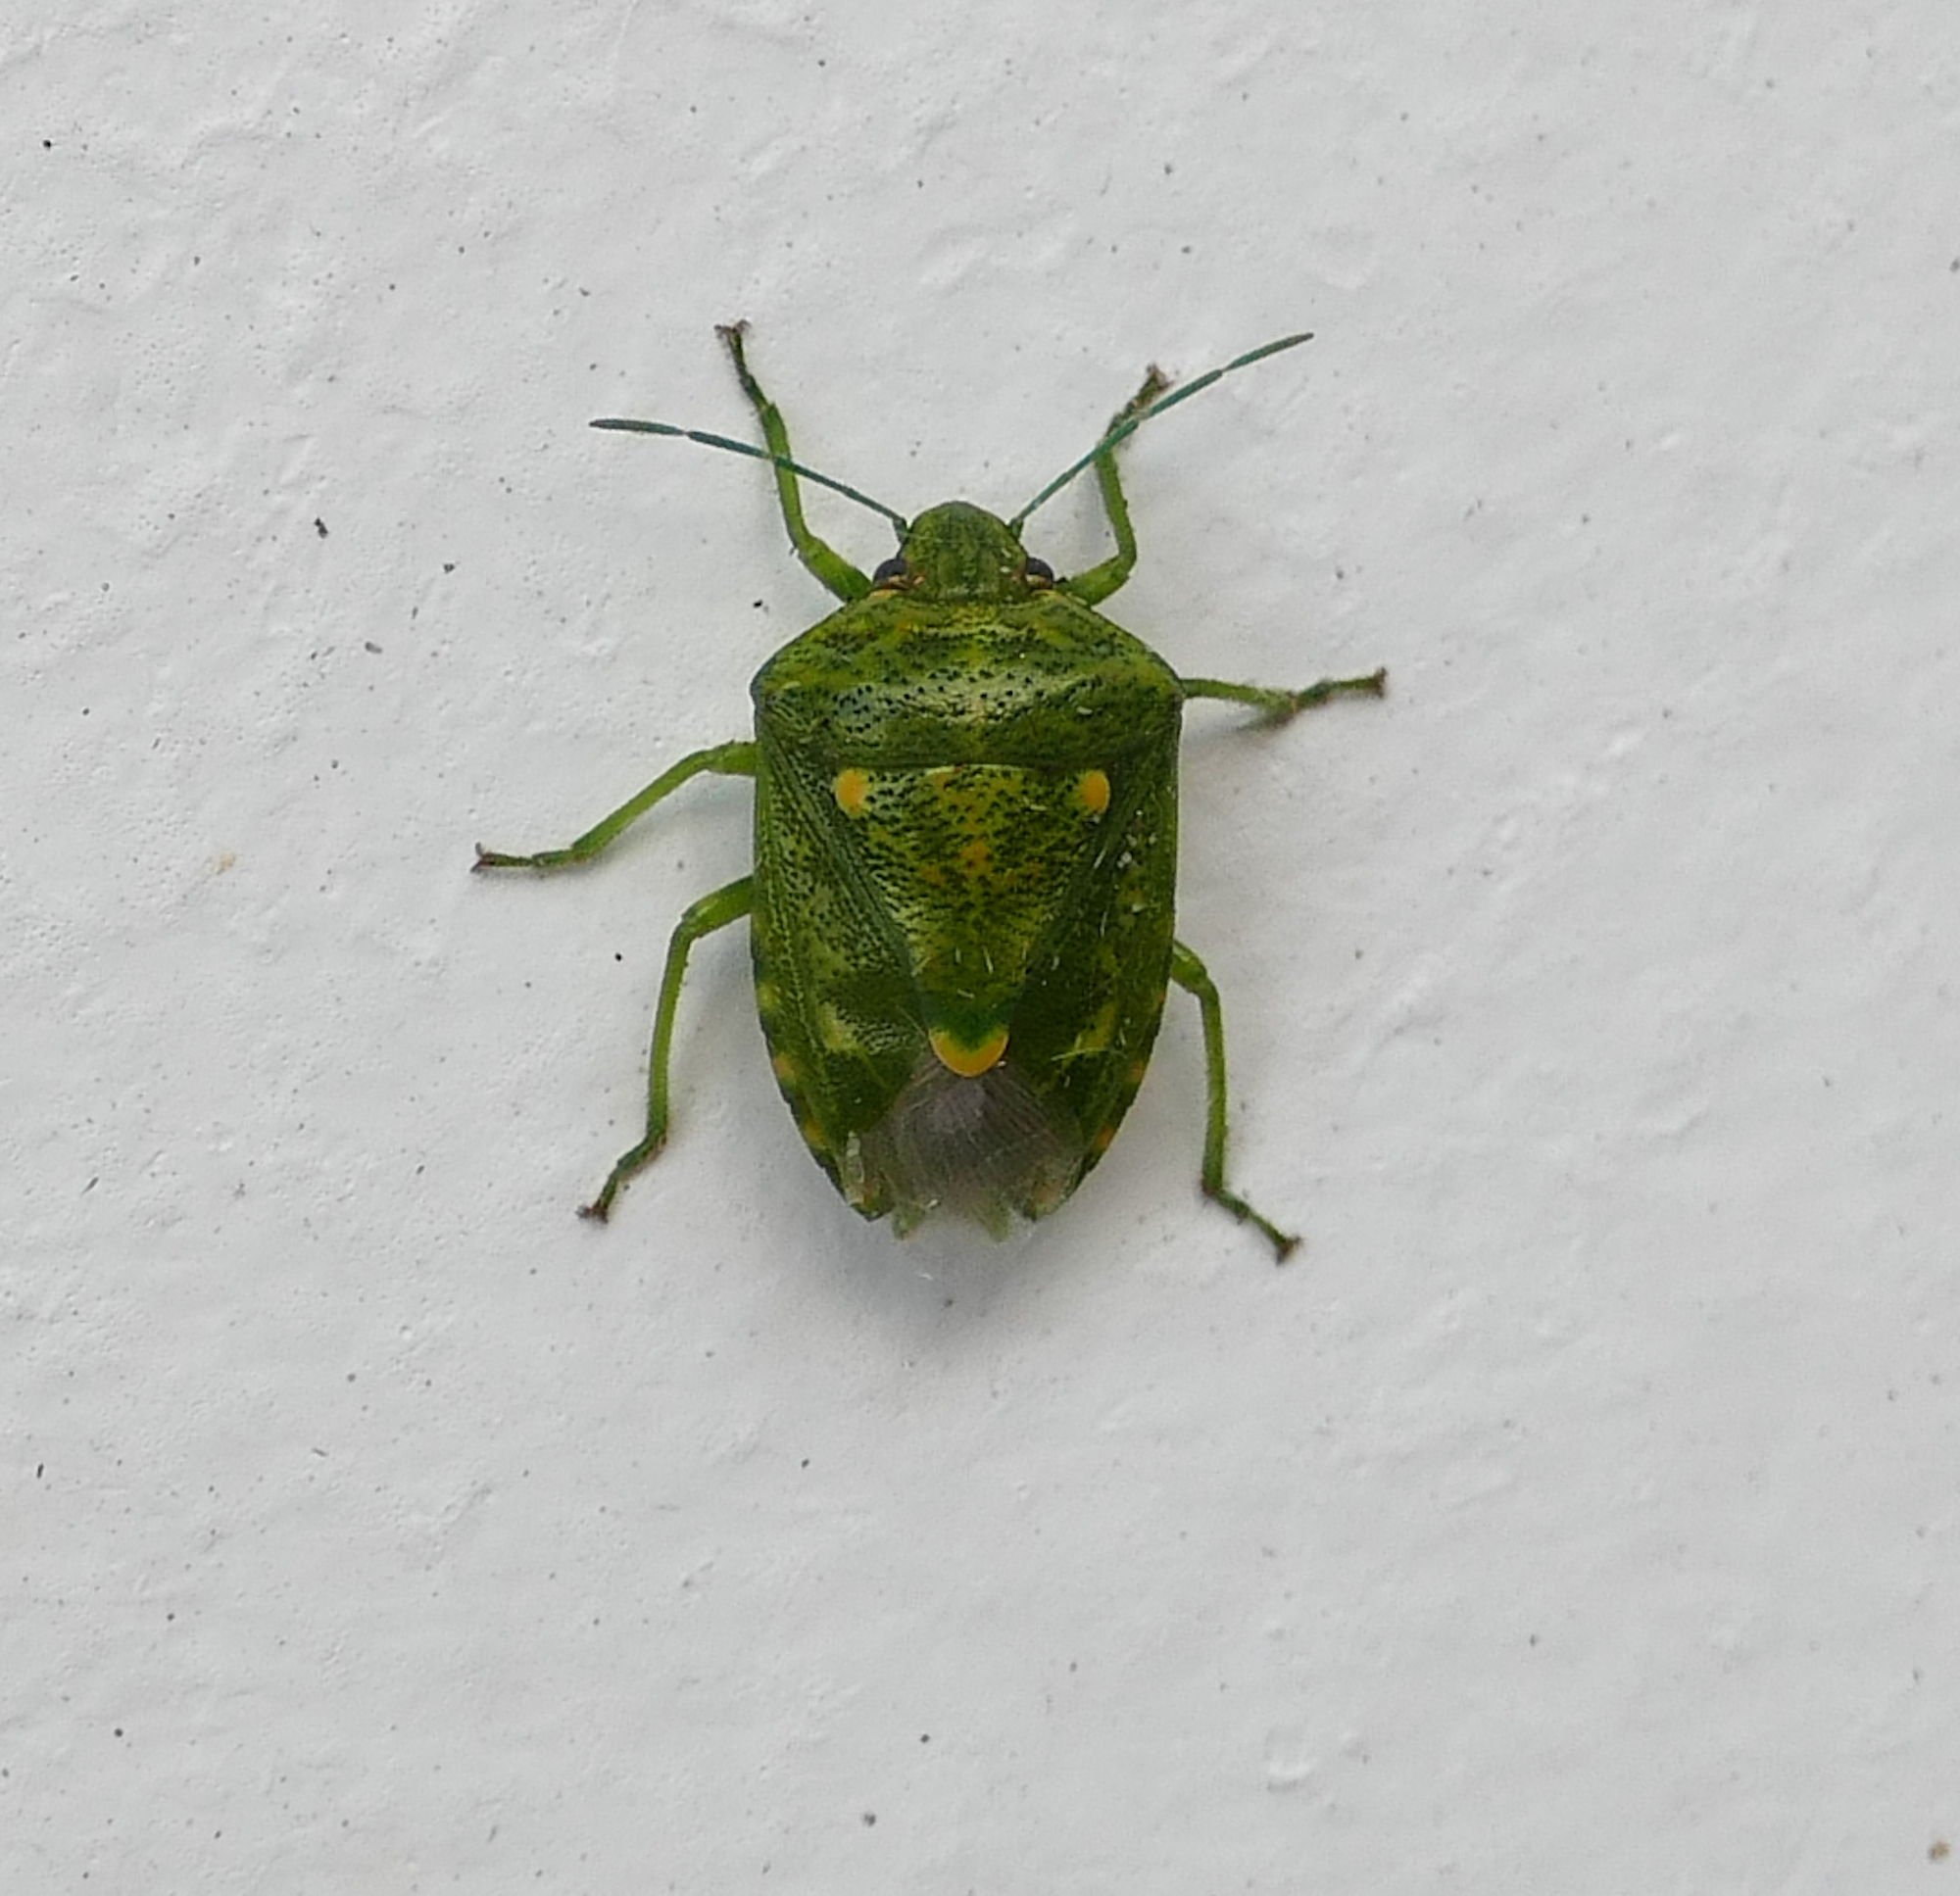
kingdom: Animalia
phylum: Arthropoda
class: Insecta
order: Hemiptera
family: Pentatomidae
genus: Banasa
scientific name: Banasa euchlora
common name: Cedar berry bug
